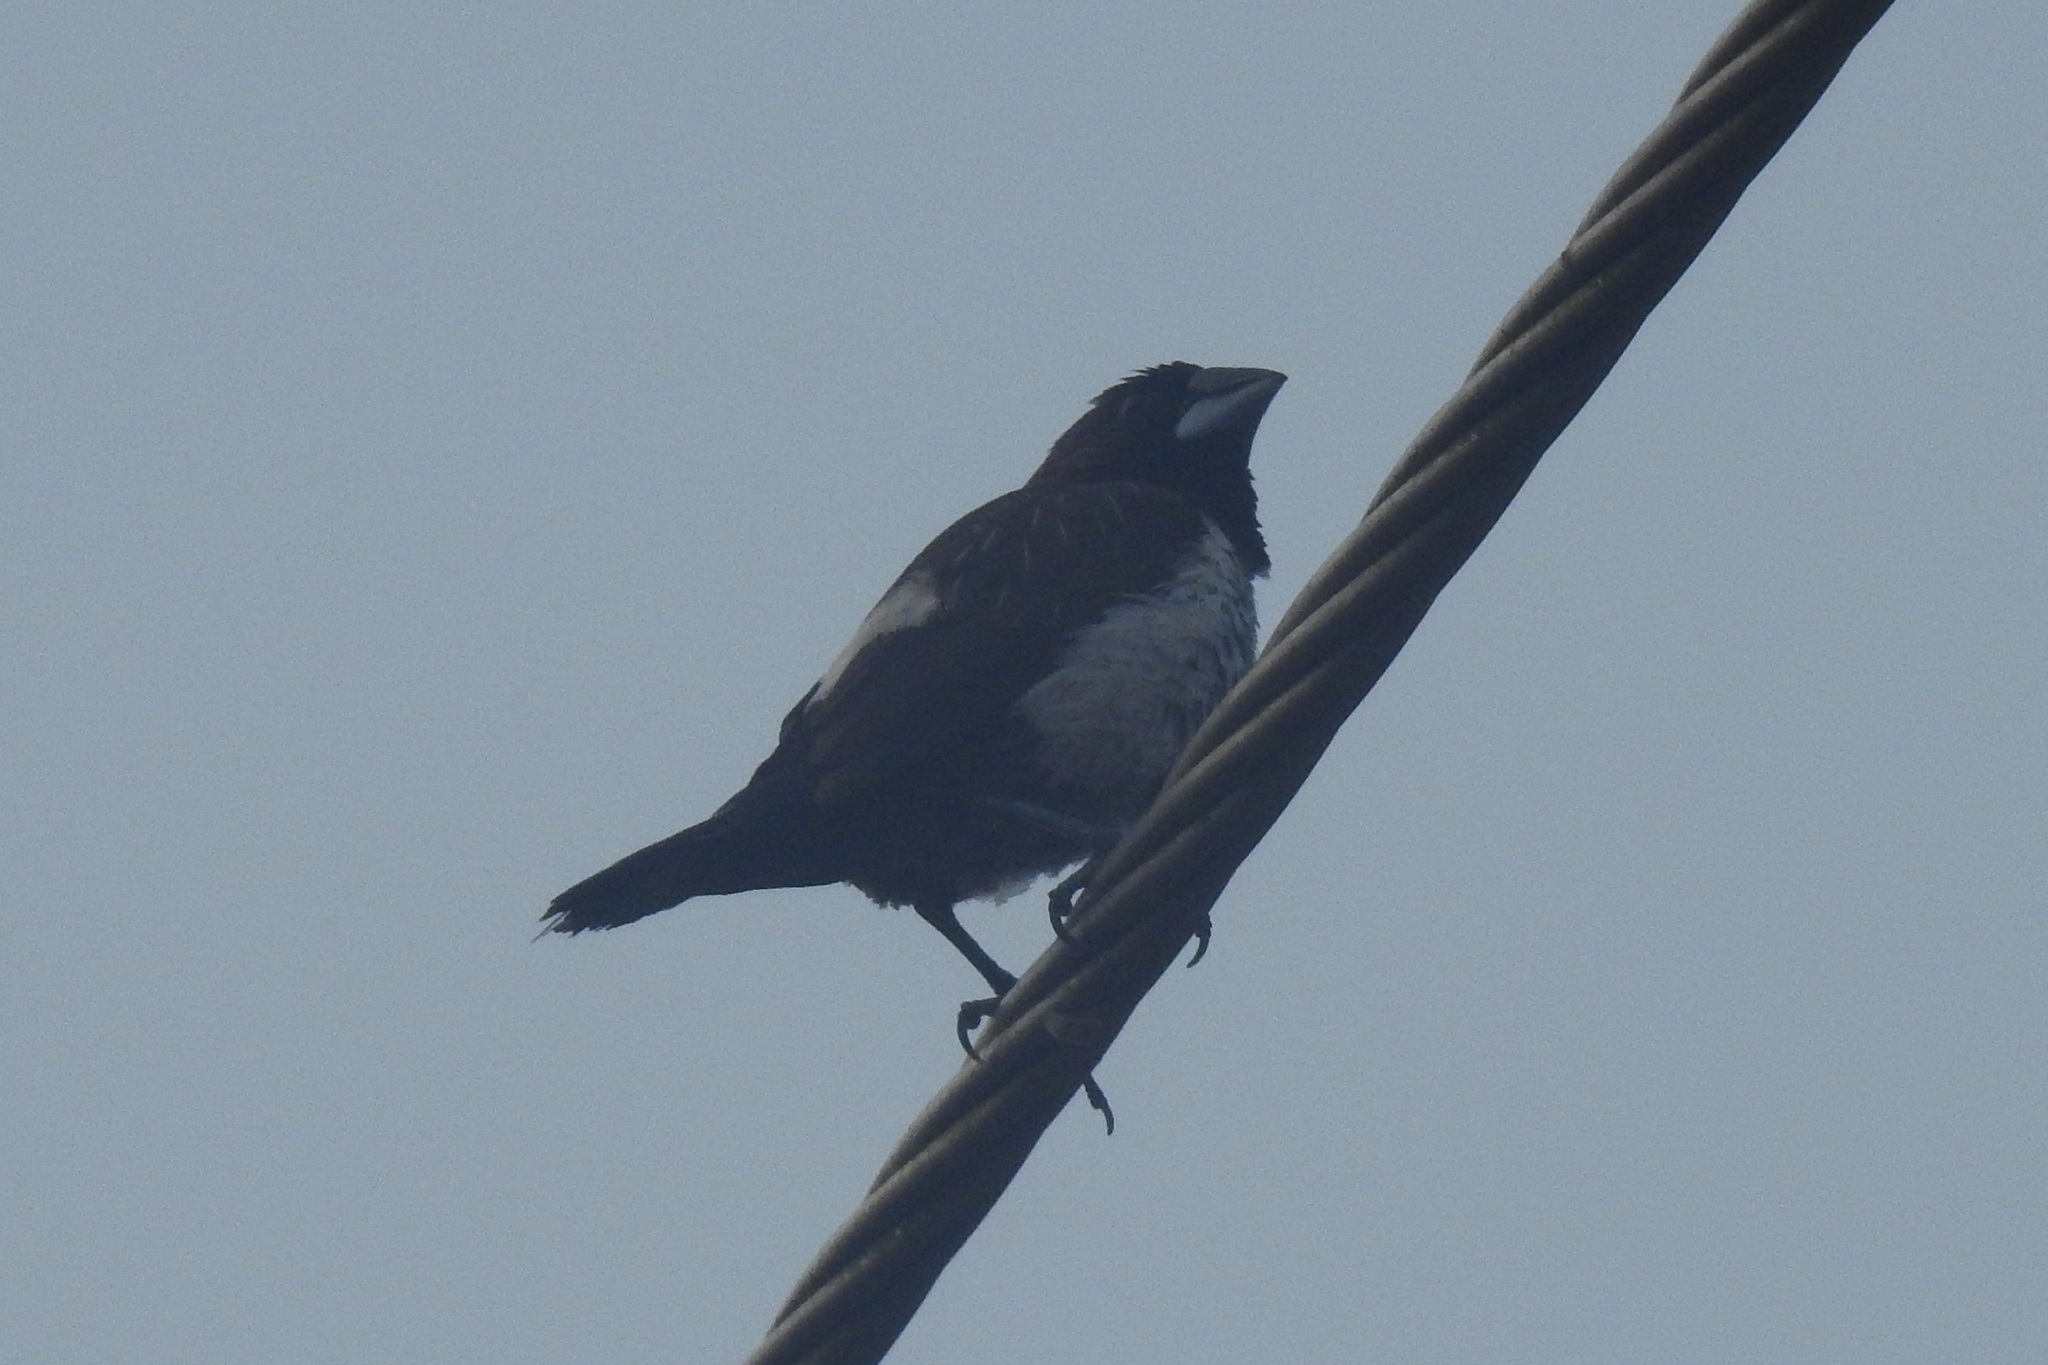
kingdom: Animalia
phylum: Chordata
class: Aves
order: Passeriformes
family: Estrildidae
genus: Lonchura
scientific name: Lonchura striata
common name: White-rumped munia
